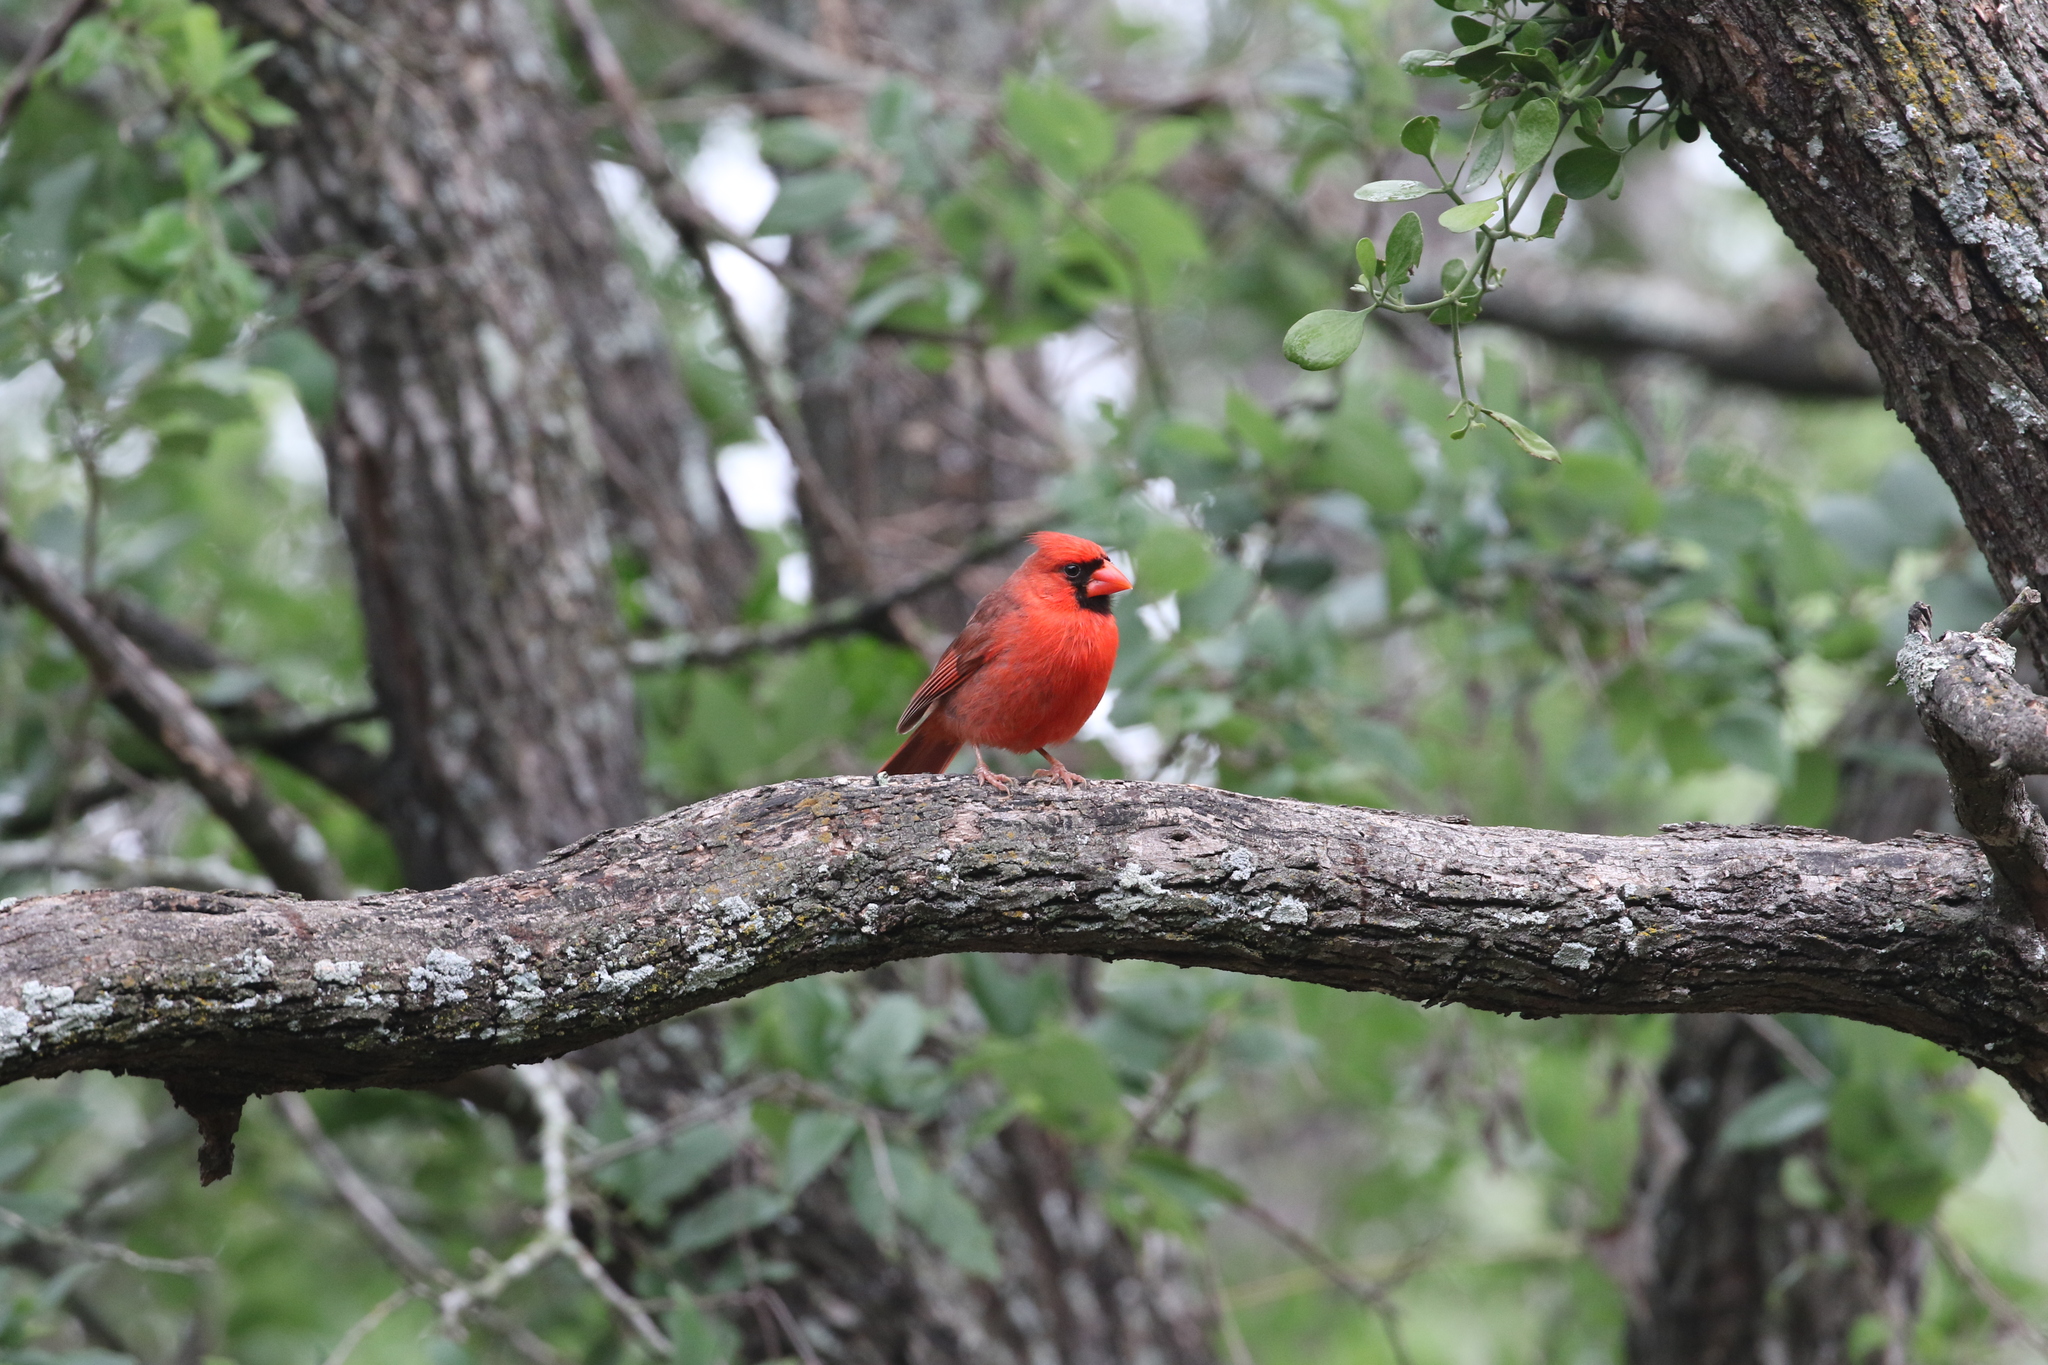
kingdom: Animalia
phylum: Chordata
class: Aves
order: Passeriformes
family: Cardinalidae
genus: Cardinalis
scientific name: Cardinalis cardinalis
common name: Northern cardinal
